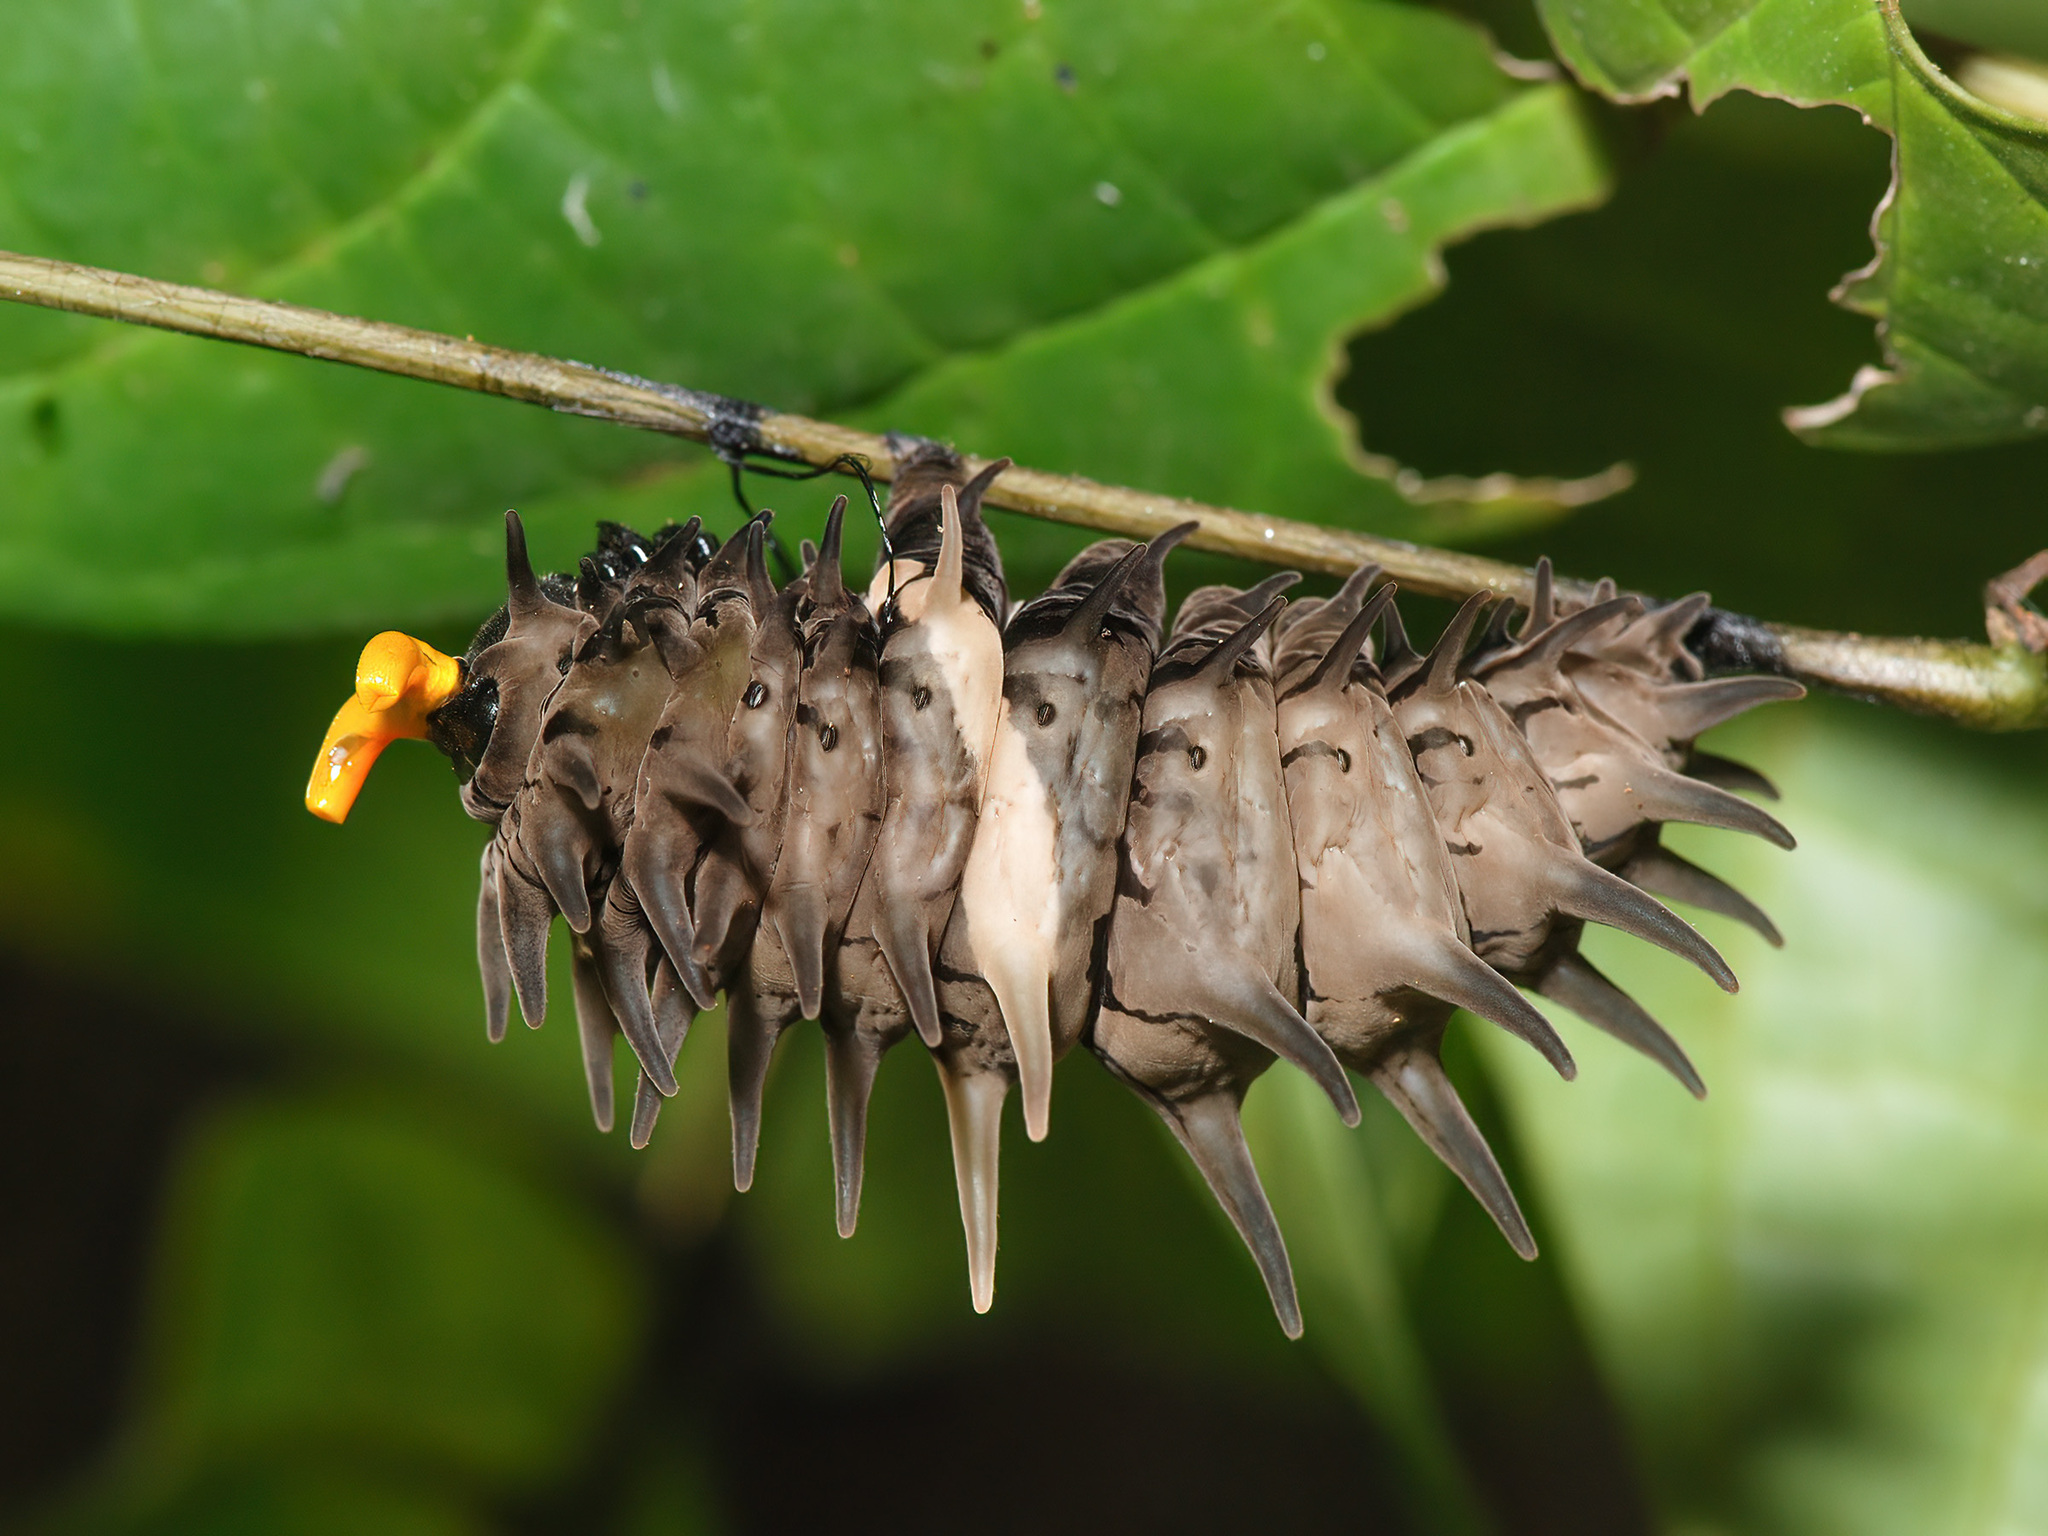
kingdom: Animalia
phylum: Arthropoda
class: Insecta
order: Lepidoptera
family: Papilionidae
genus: Troides
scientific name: Troides helena
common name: Common birdwing
